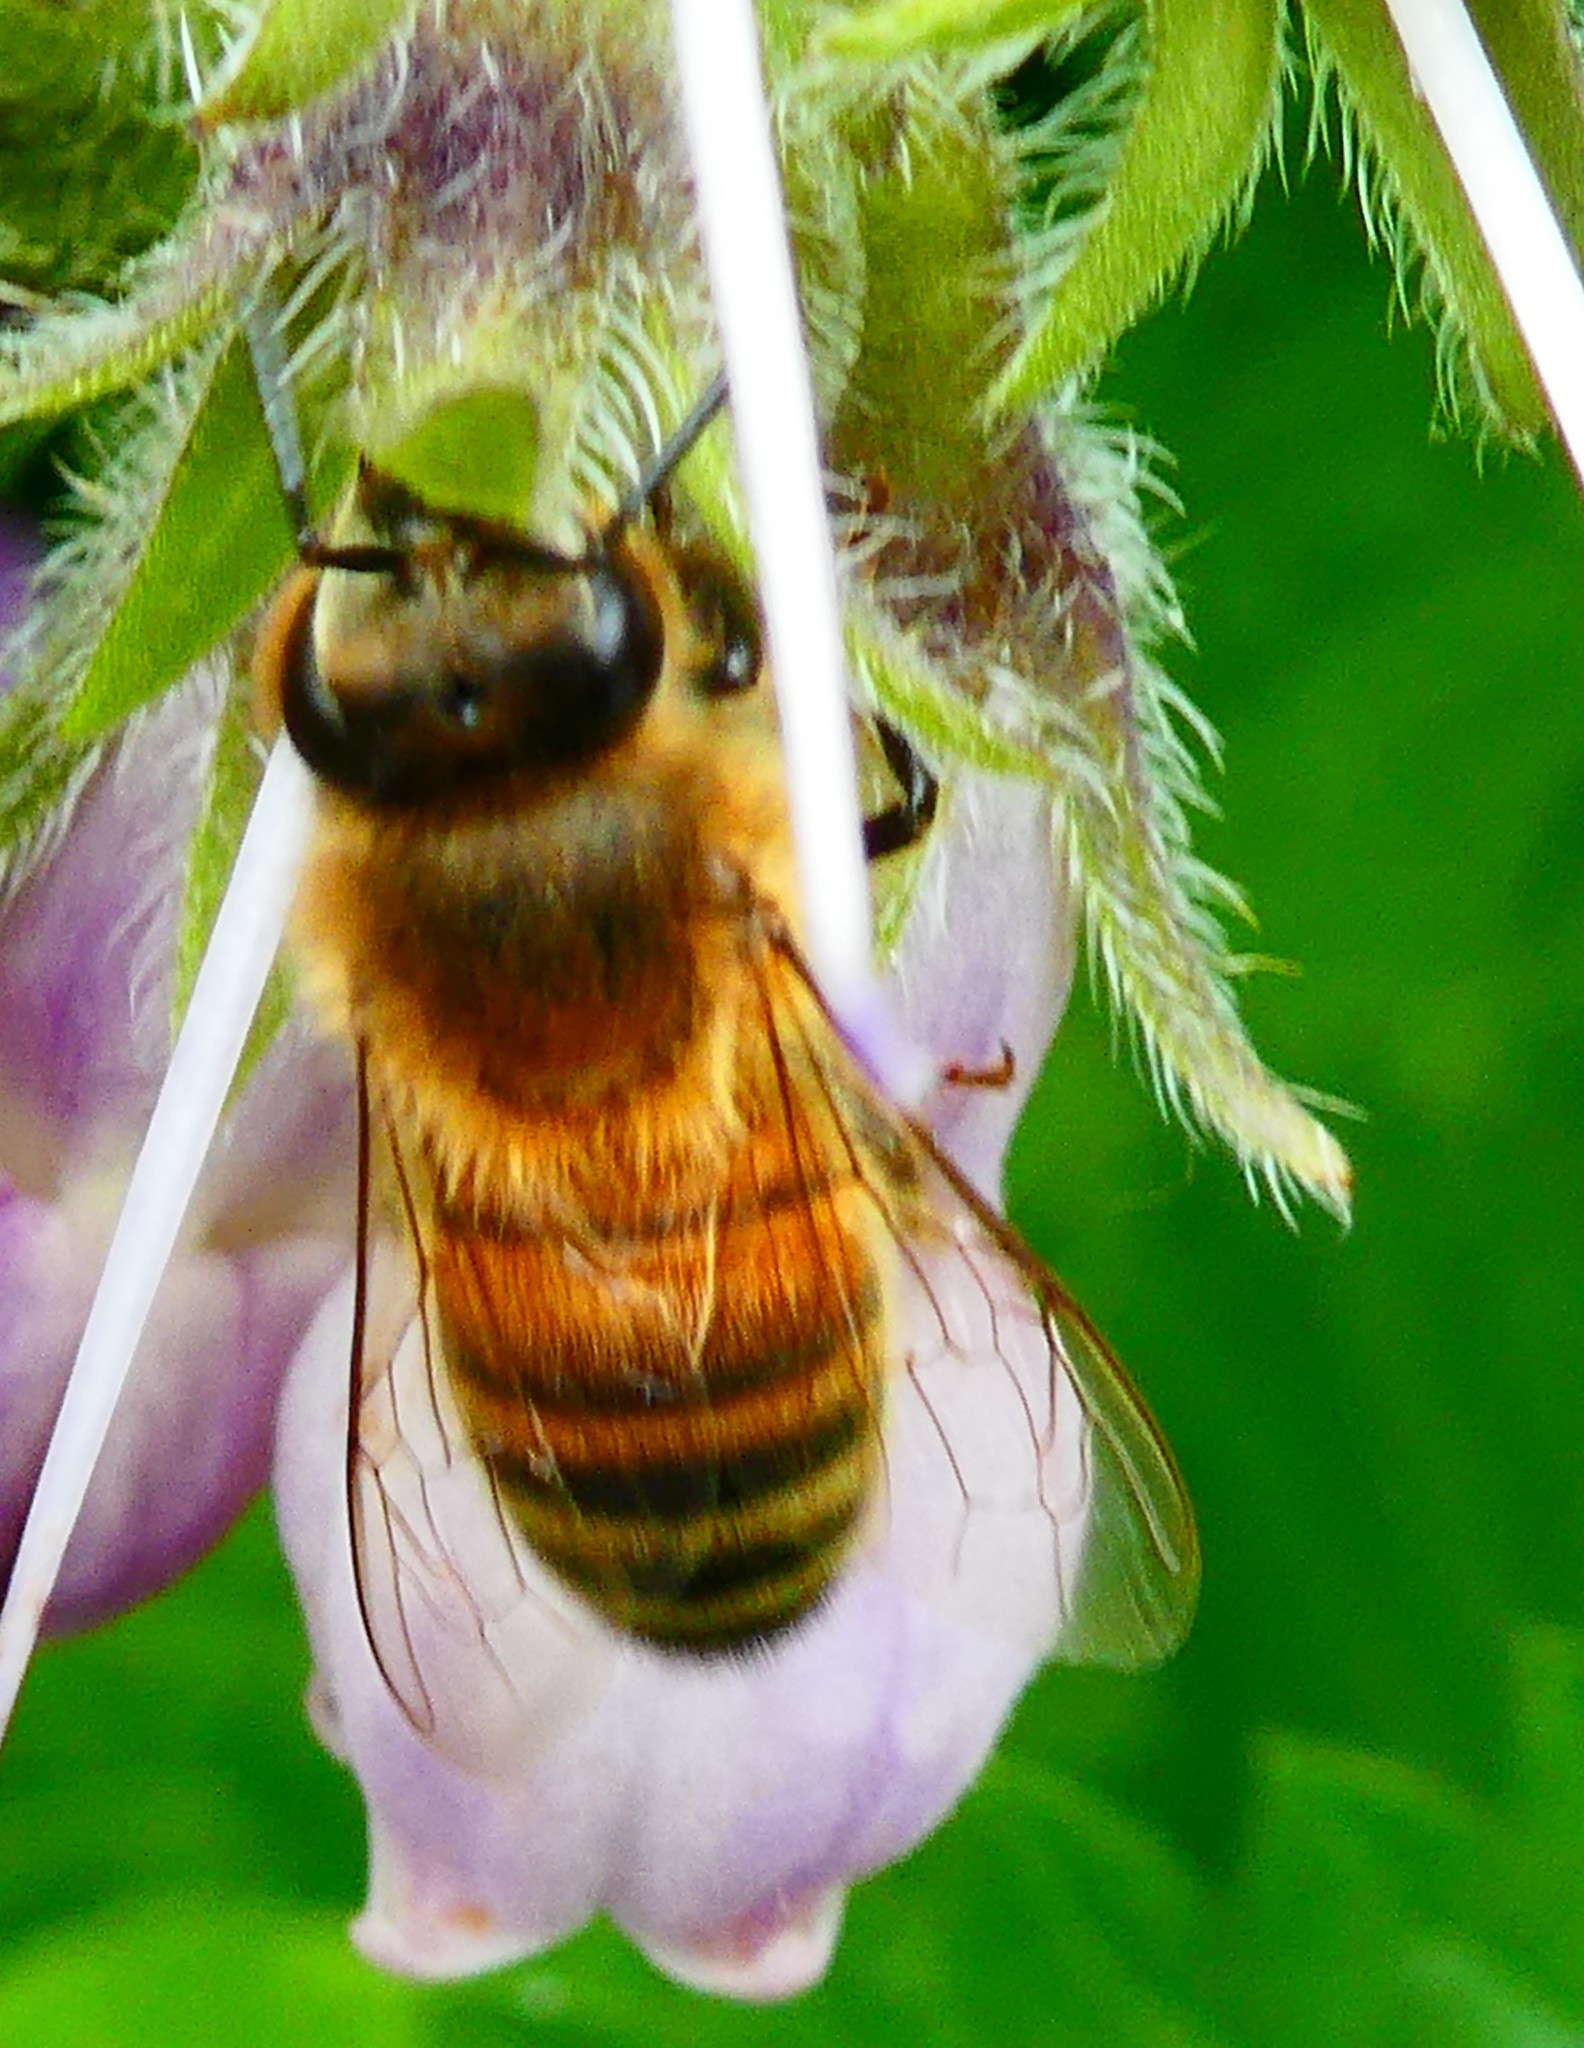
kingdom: Animalia
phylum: Arthropoda
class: Insecta
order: Hymenoptera
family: Apidae
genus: Apis
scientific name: Apis mellifera
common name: Honey bee
